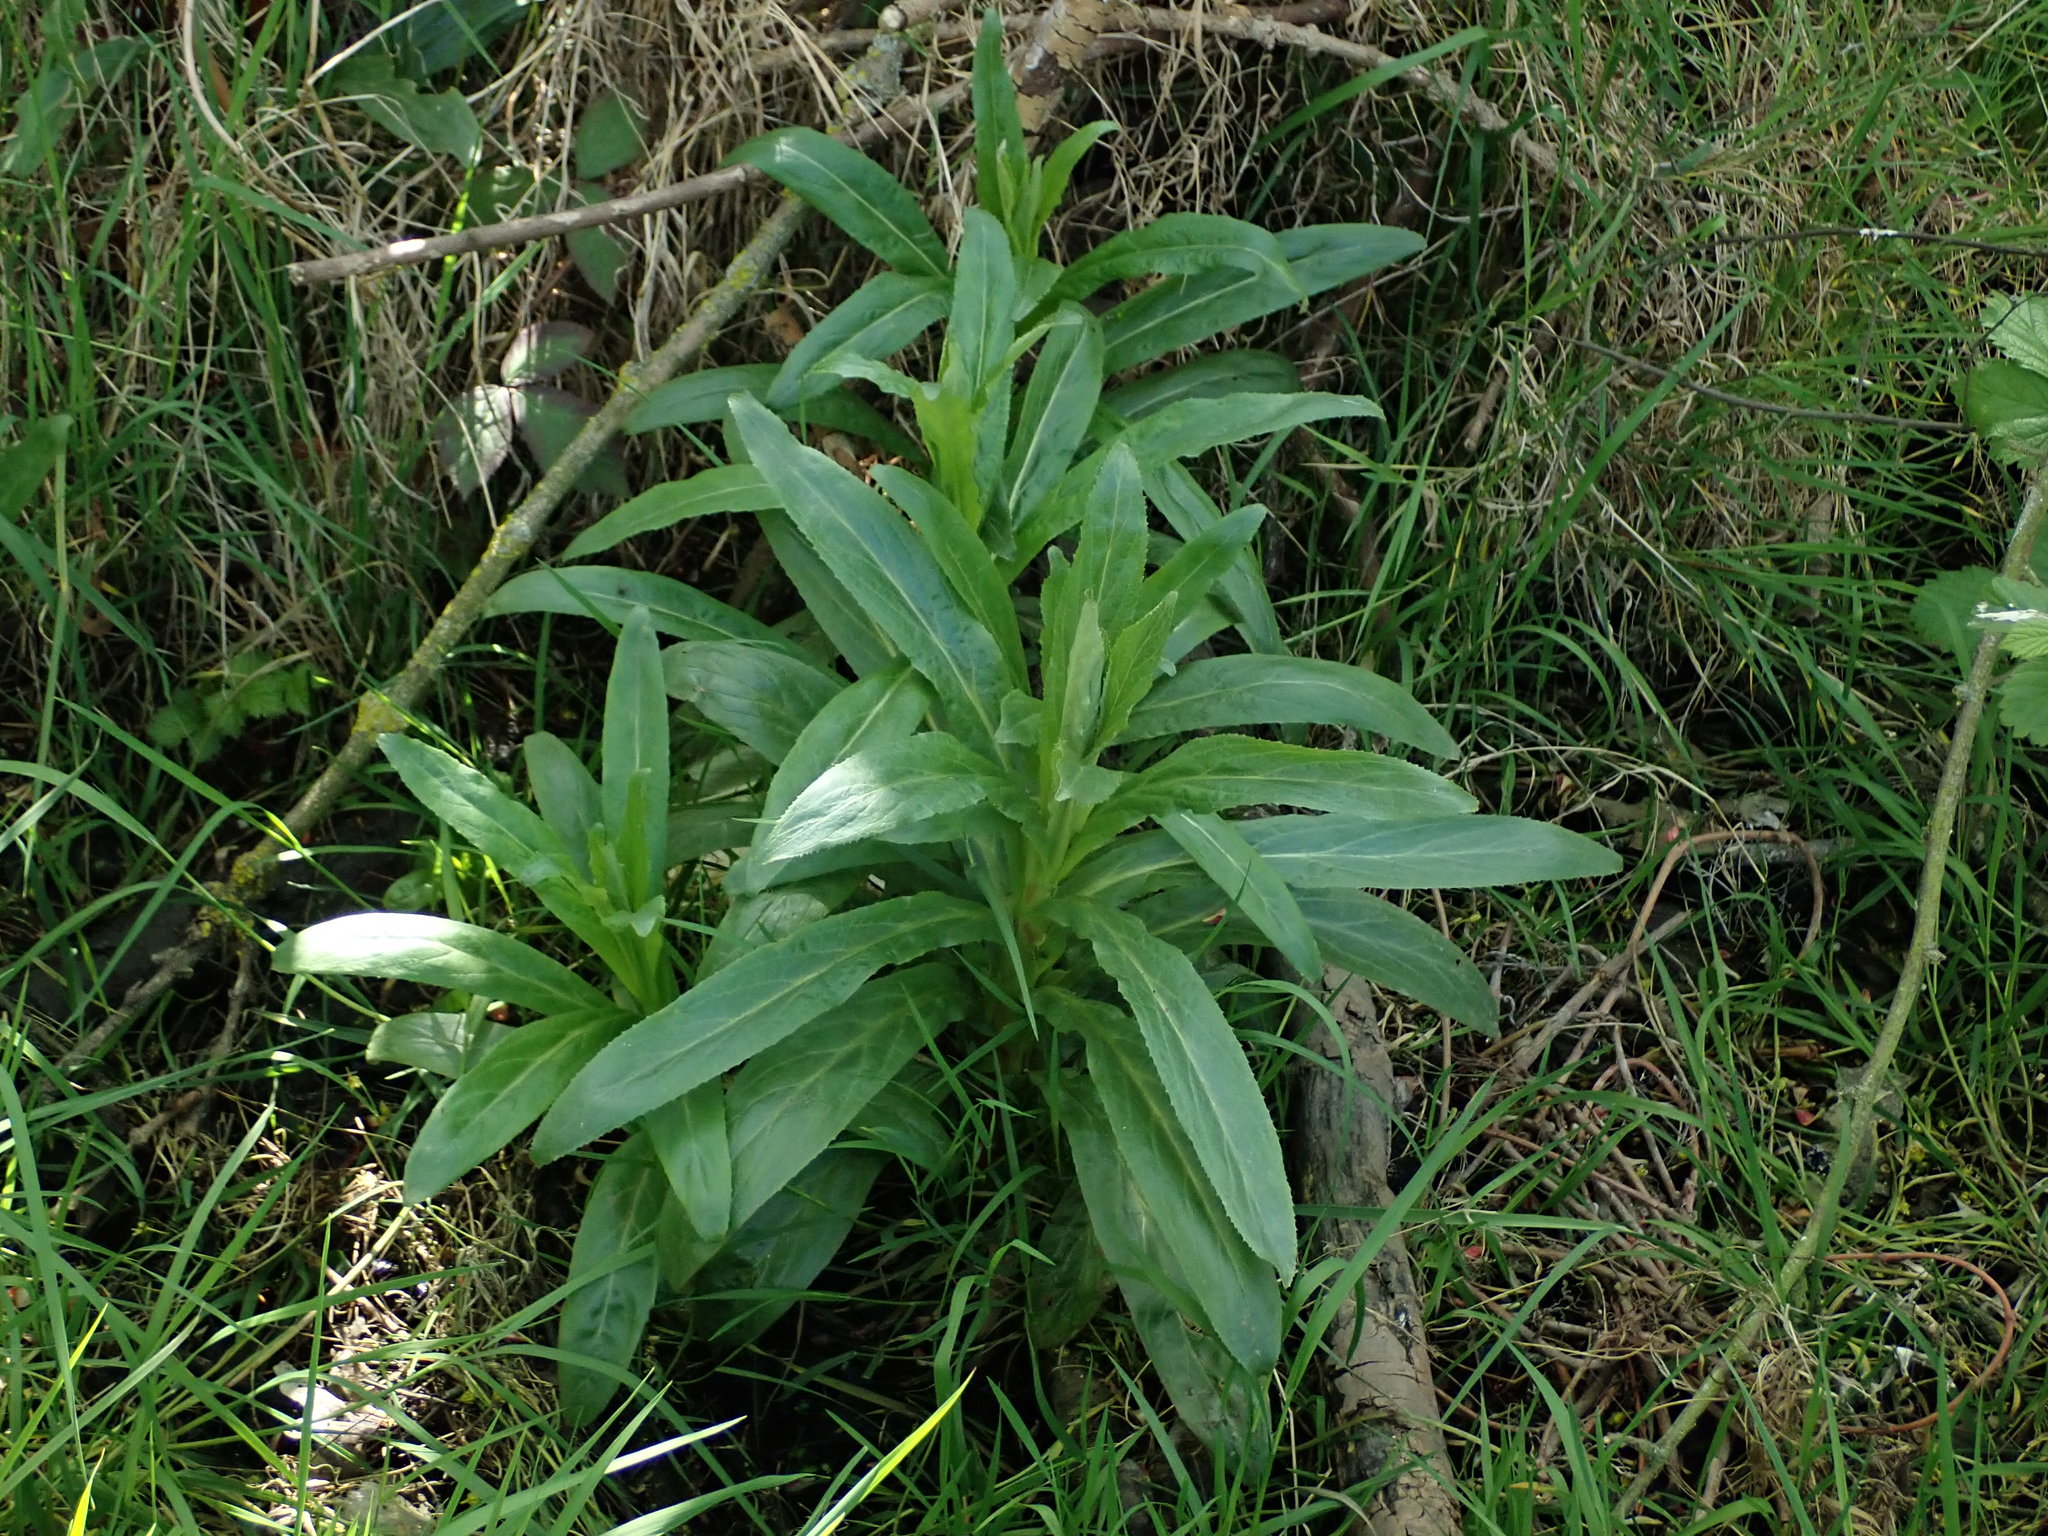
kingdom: Plantae
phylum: Tracheophyta
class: Magnoliopsida
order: Myrtales
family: Onagraceae
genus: Epilobium
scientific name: Epilobium hirsutum
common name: Great willowherb
